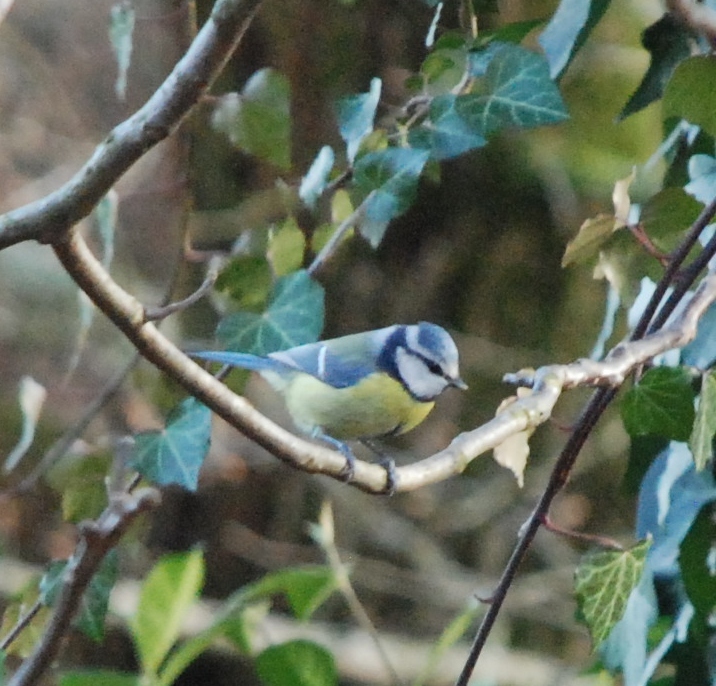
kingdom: Animalia
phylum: Chordata
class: Aves
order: Passeriformes
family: Paridae
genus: Cyanistes
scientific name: Cyanistes caeruleus
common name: Eurasian blue tit
